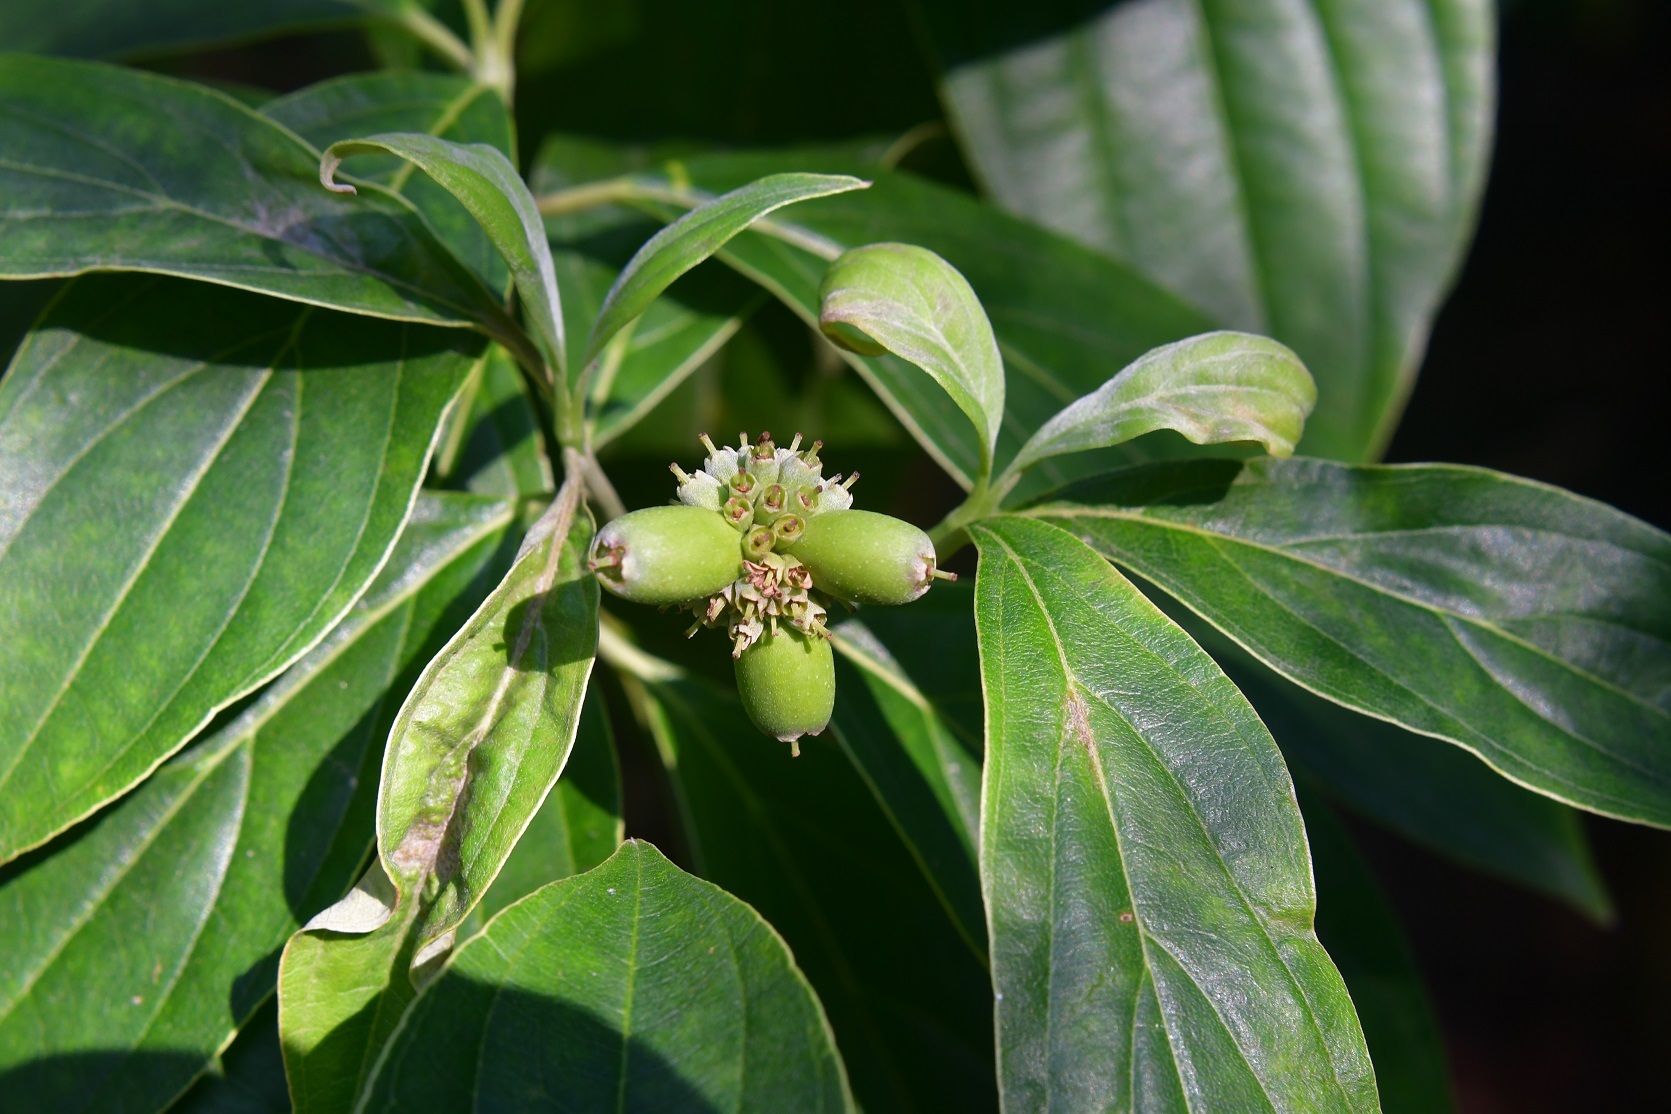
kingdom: Plantae
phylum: Tracheophyta
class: Magnoliopsida
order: Cornales
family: Cornaceae
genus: Cornus
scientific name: Cornus disciflora
